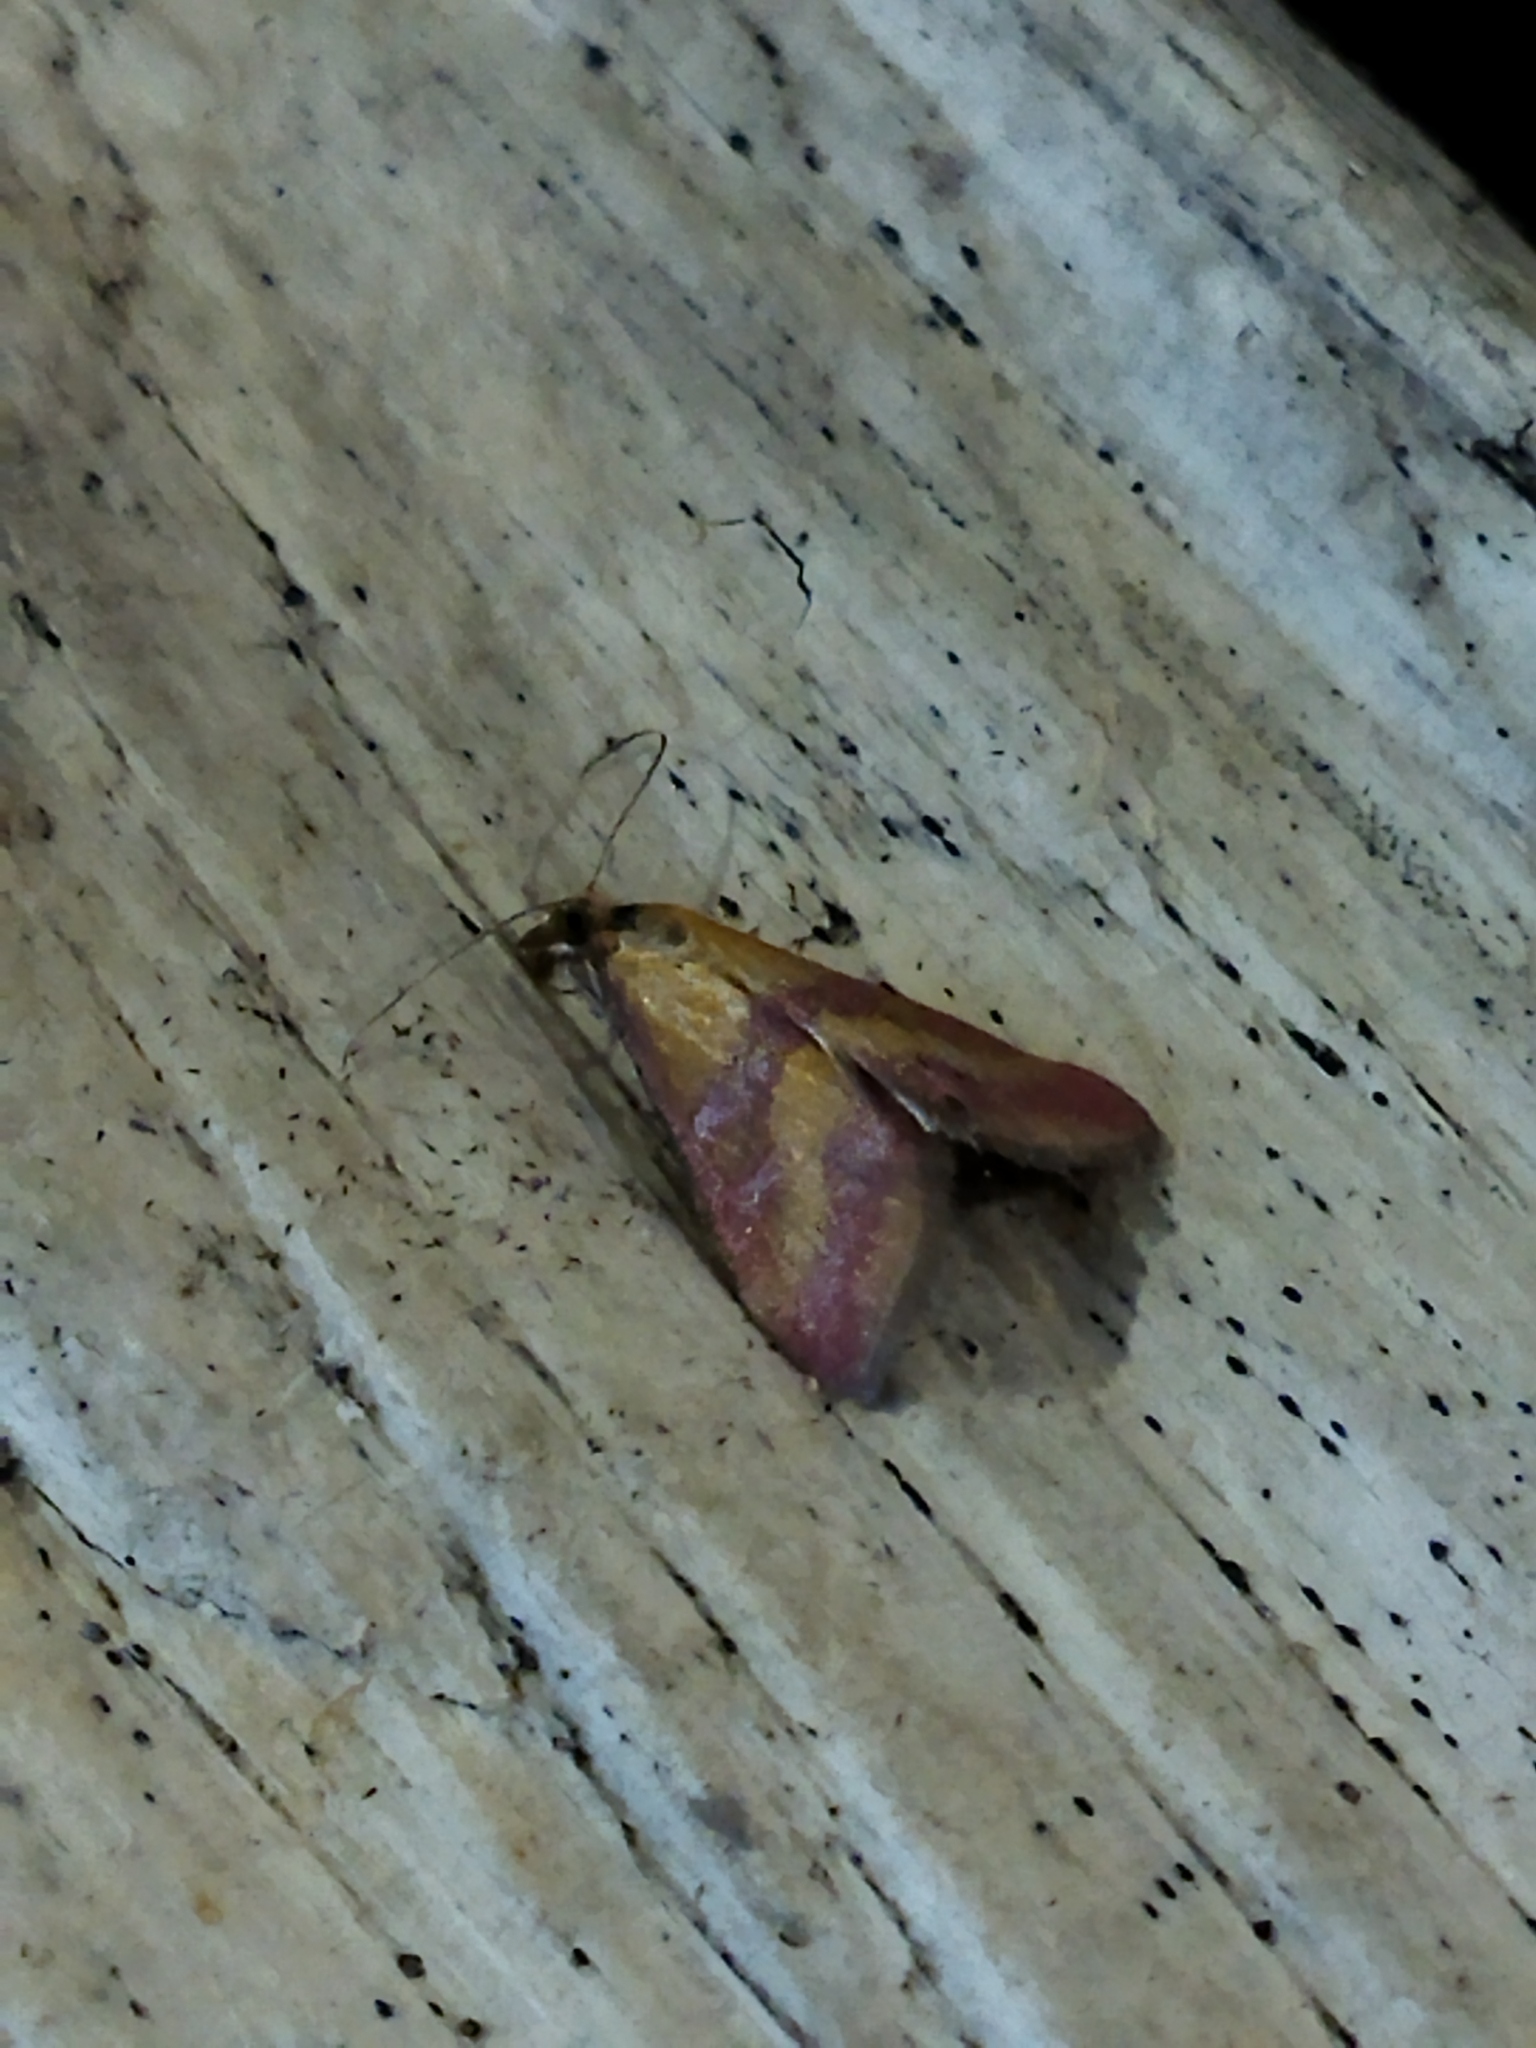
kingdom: Animalia
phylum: Arthropoda
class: Insecta
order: Lepidoptera
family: Crambidae
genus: Pyrausta
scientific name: Pyrausta sanguinalis
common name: Scarce crimson and gold
